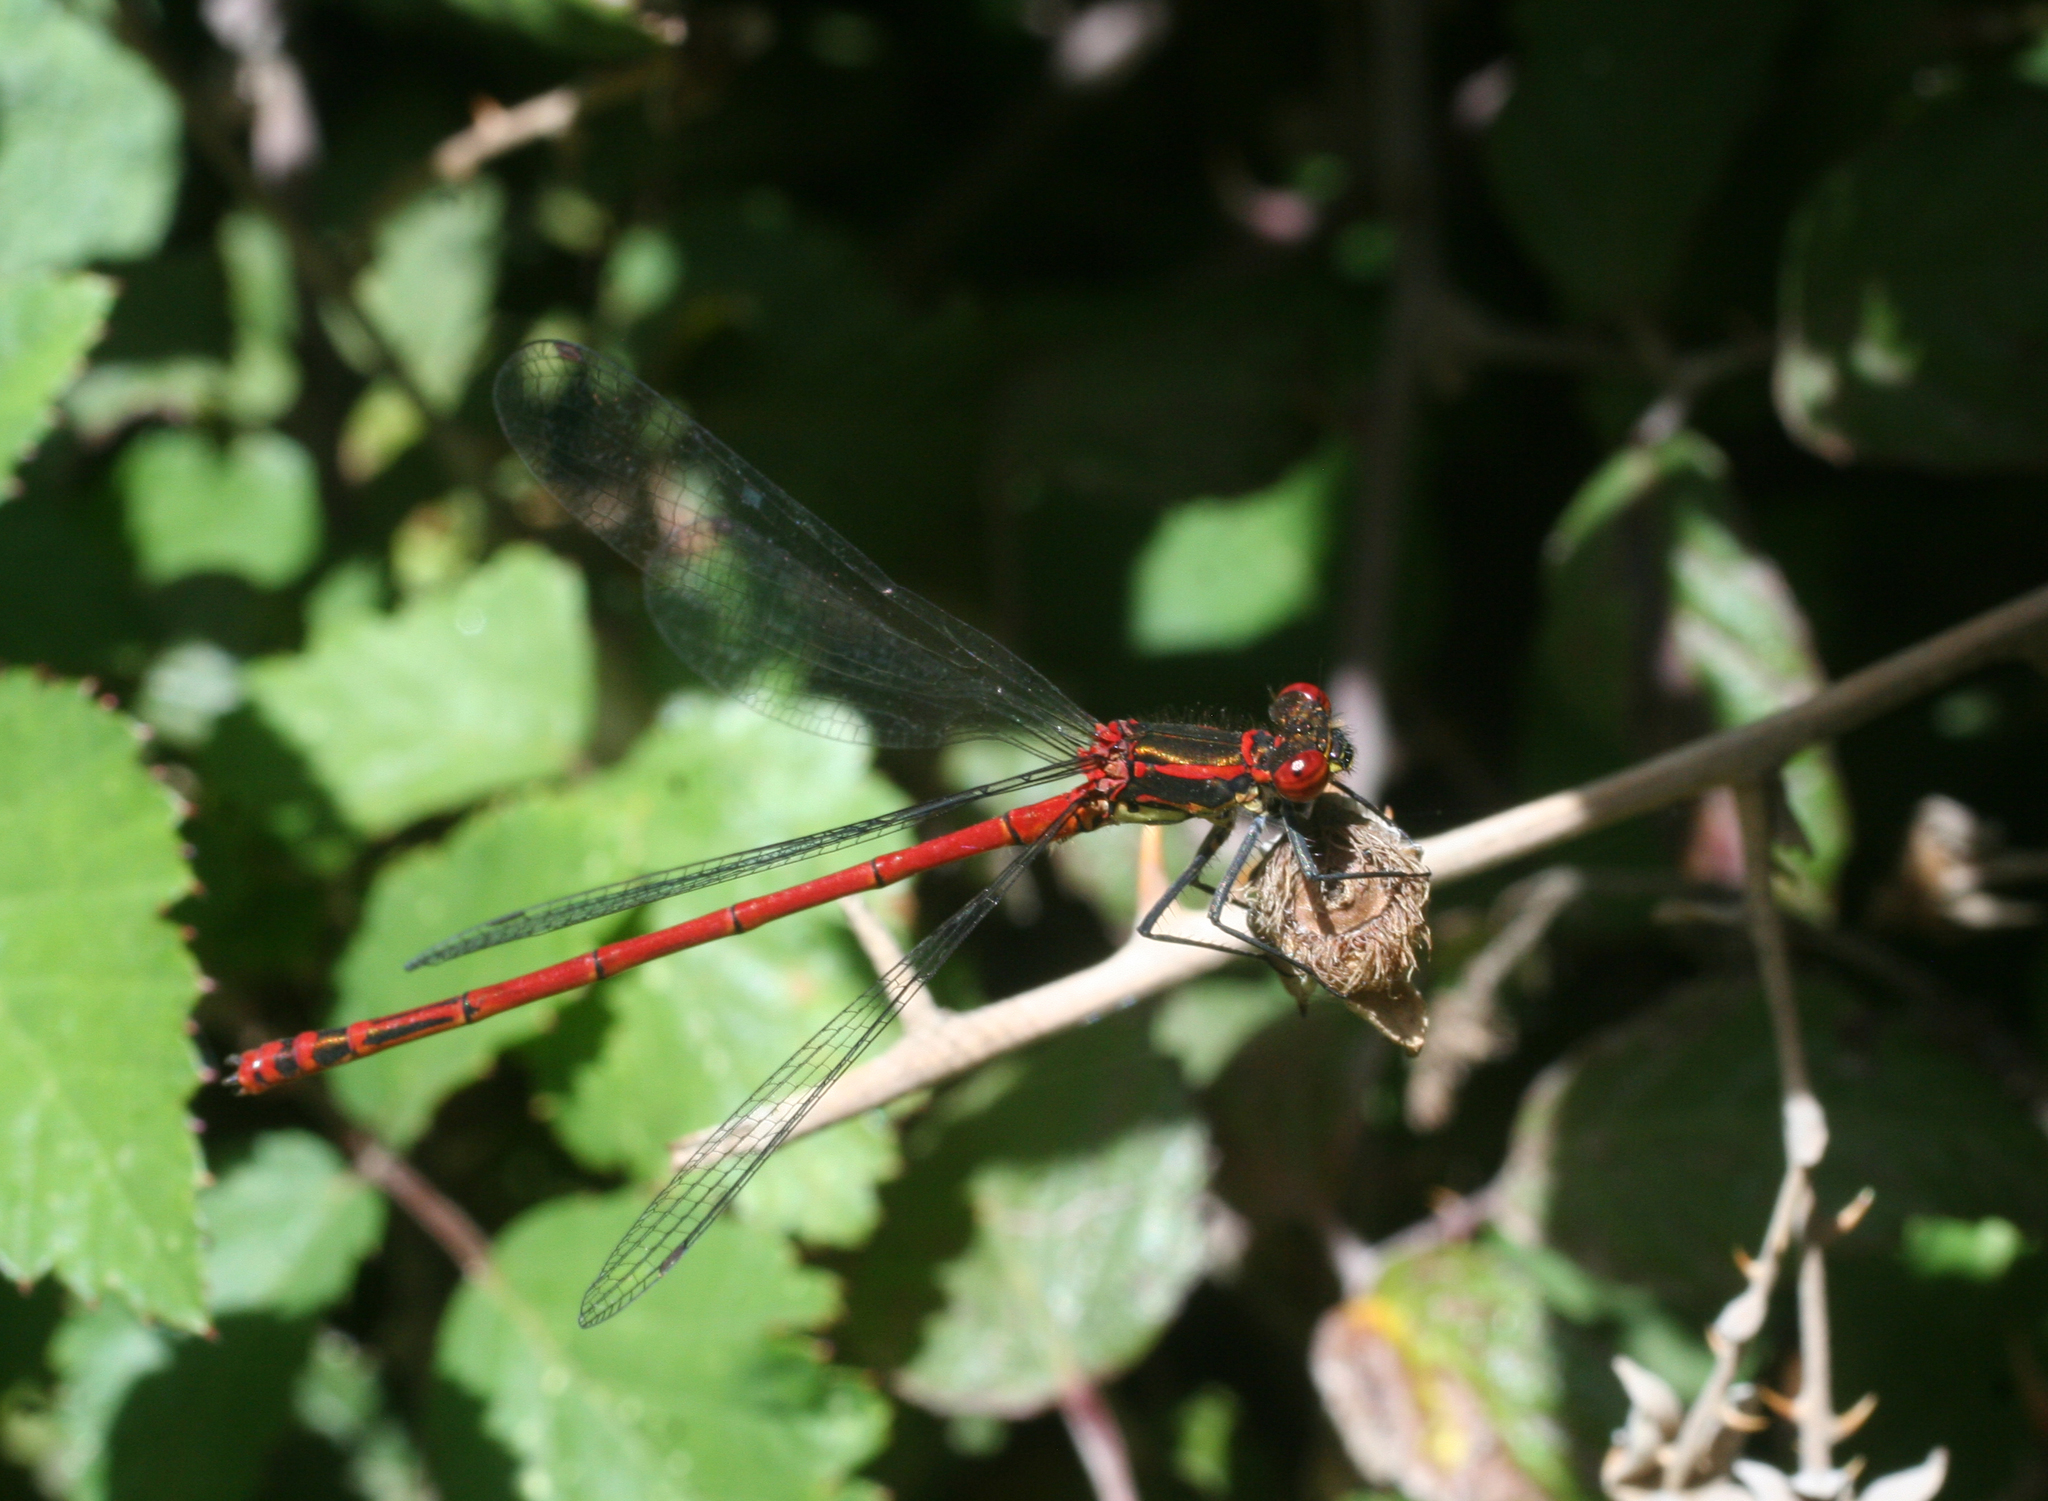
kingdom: Animalia
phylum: Arthropoda
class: Insecta
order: Odonata
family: Coenagrionidae
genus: Pyrrhosoma
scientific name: Pyrrhosoma nymphula
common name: Large red damsel
